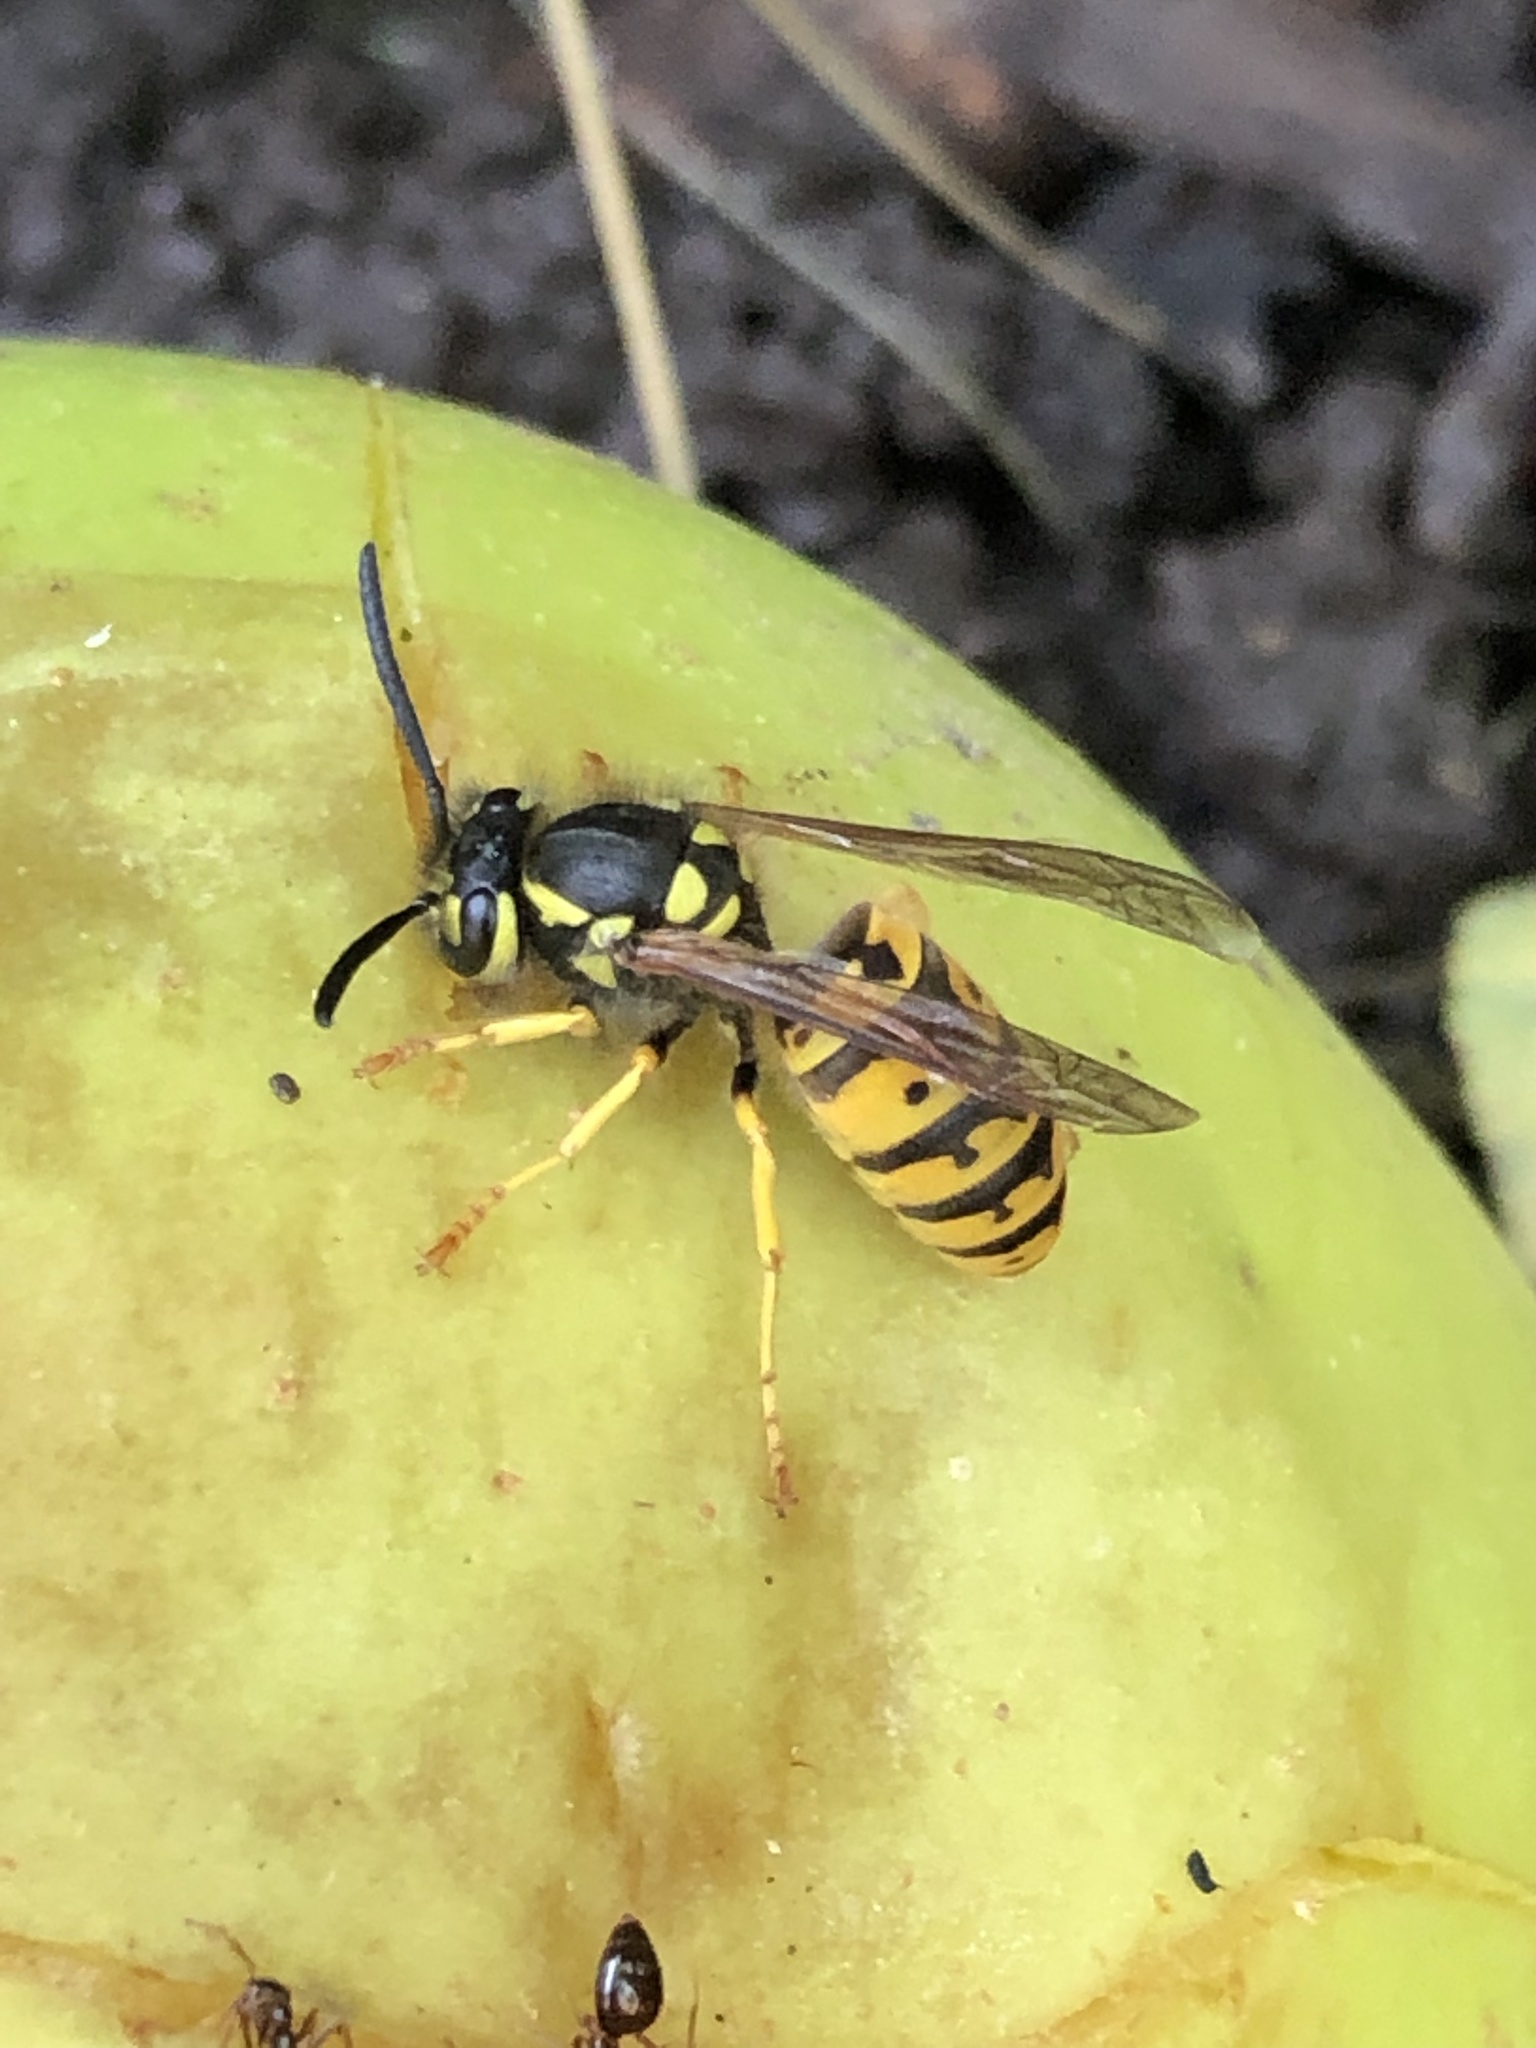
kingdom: Animalia
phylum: Arthropoda
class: Insecta
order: Hymenoptera
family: Vespidae
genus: Vespula
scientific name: Vespula germanica
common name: German wasp
